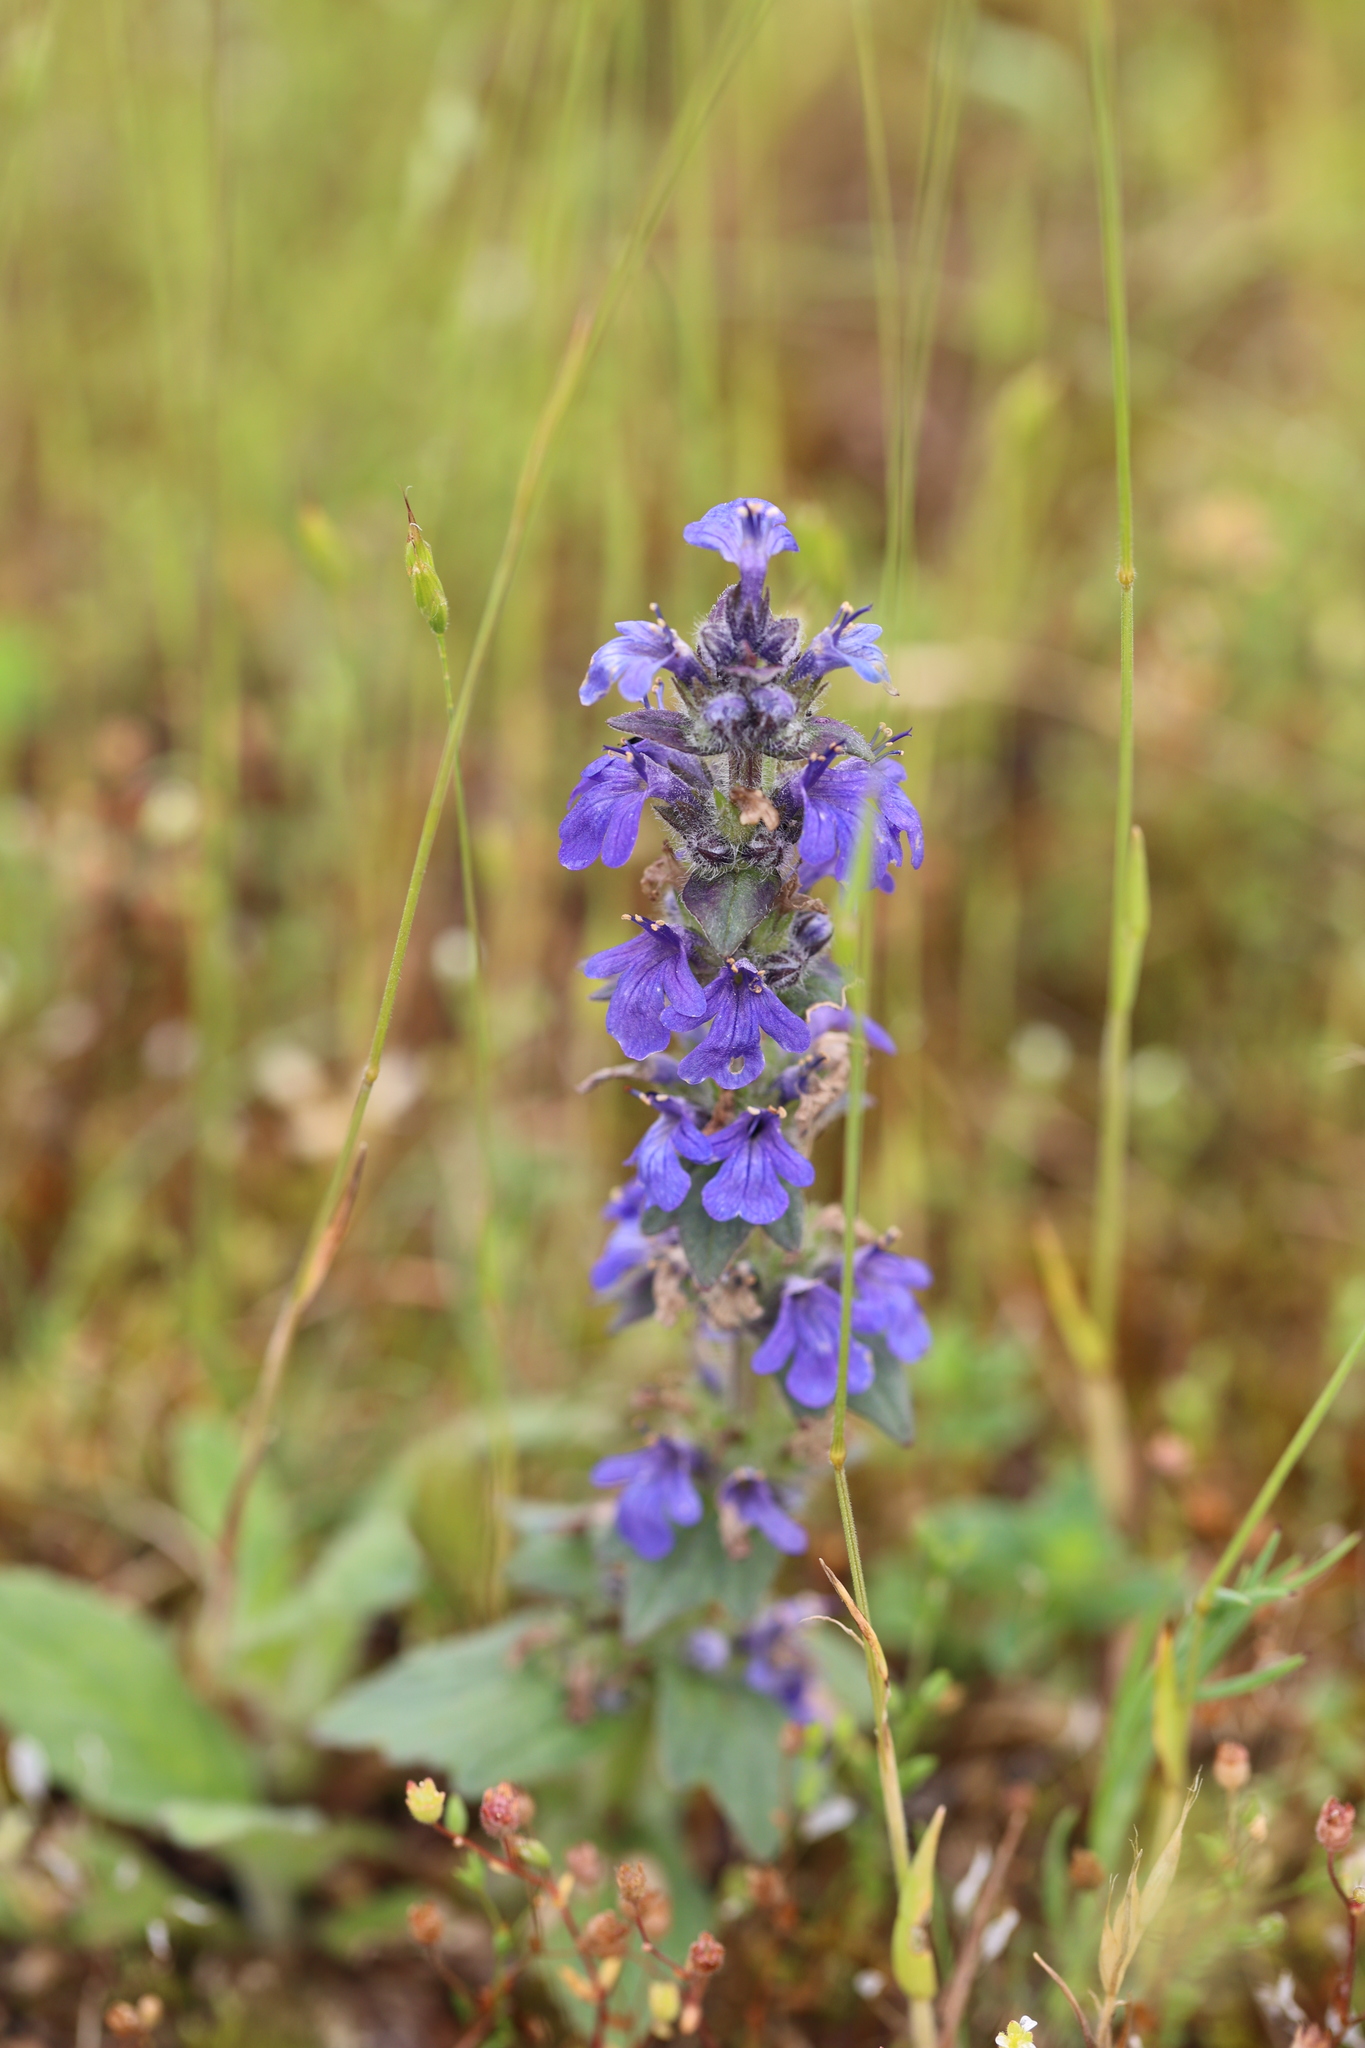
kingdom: Plantae
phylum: Tracheophyta
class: Magnoliopsida
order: Lamiales
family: Lamiaceae
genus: Ajuga
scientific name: Ajuga reptans
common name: Bugle
